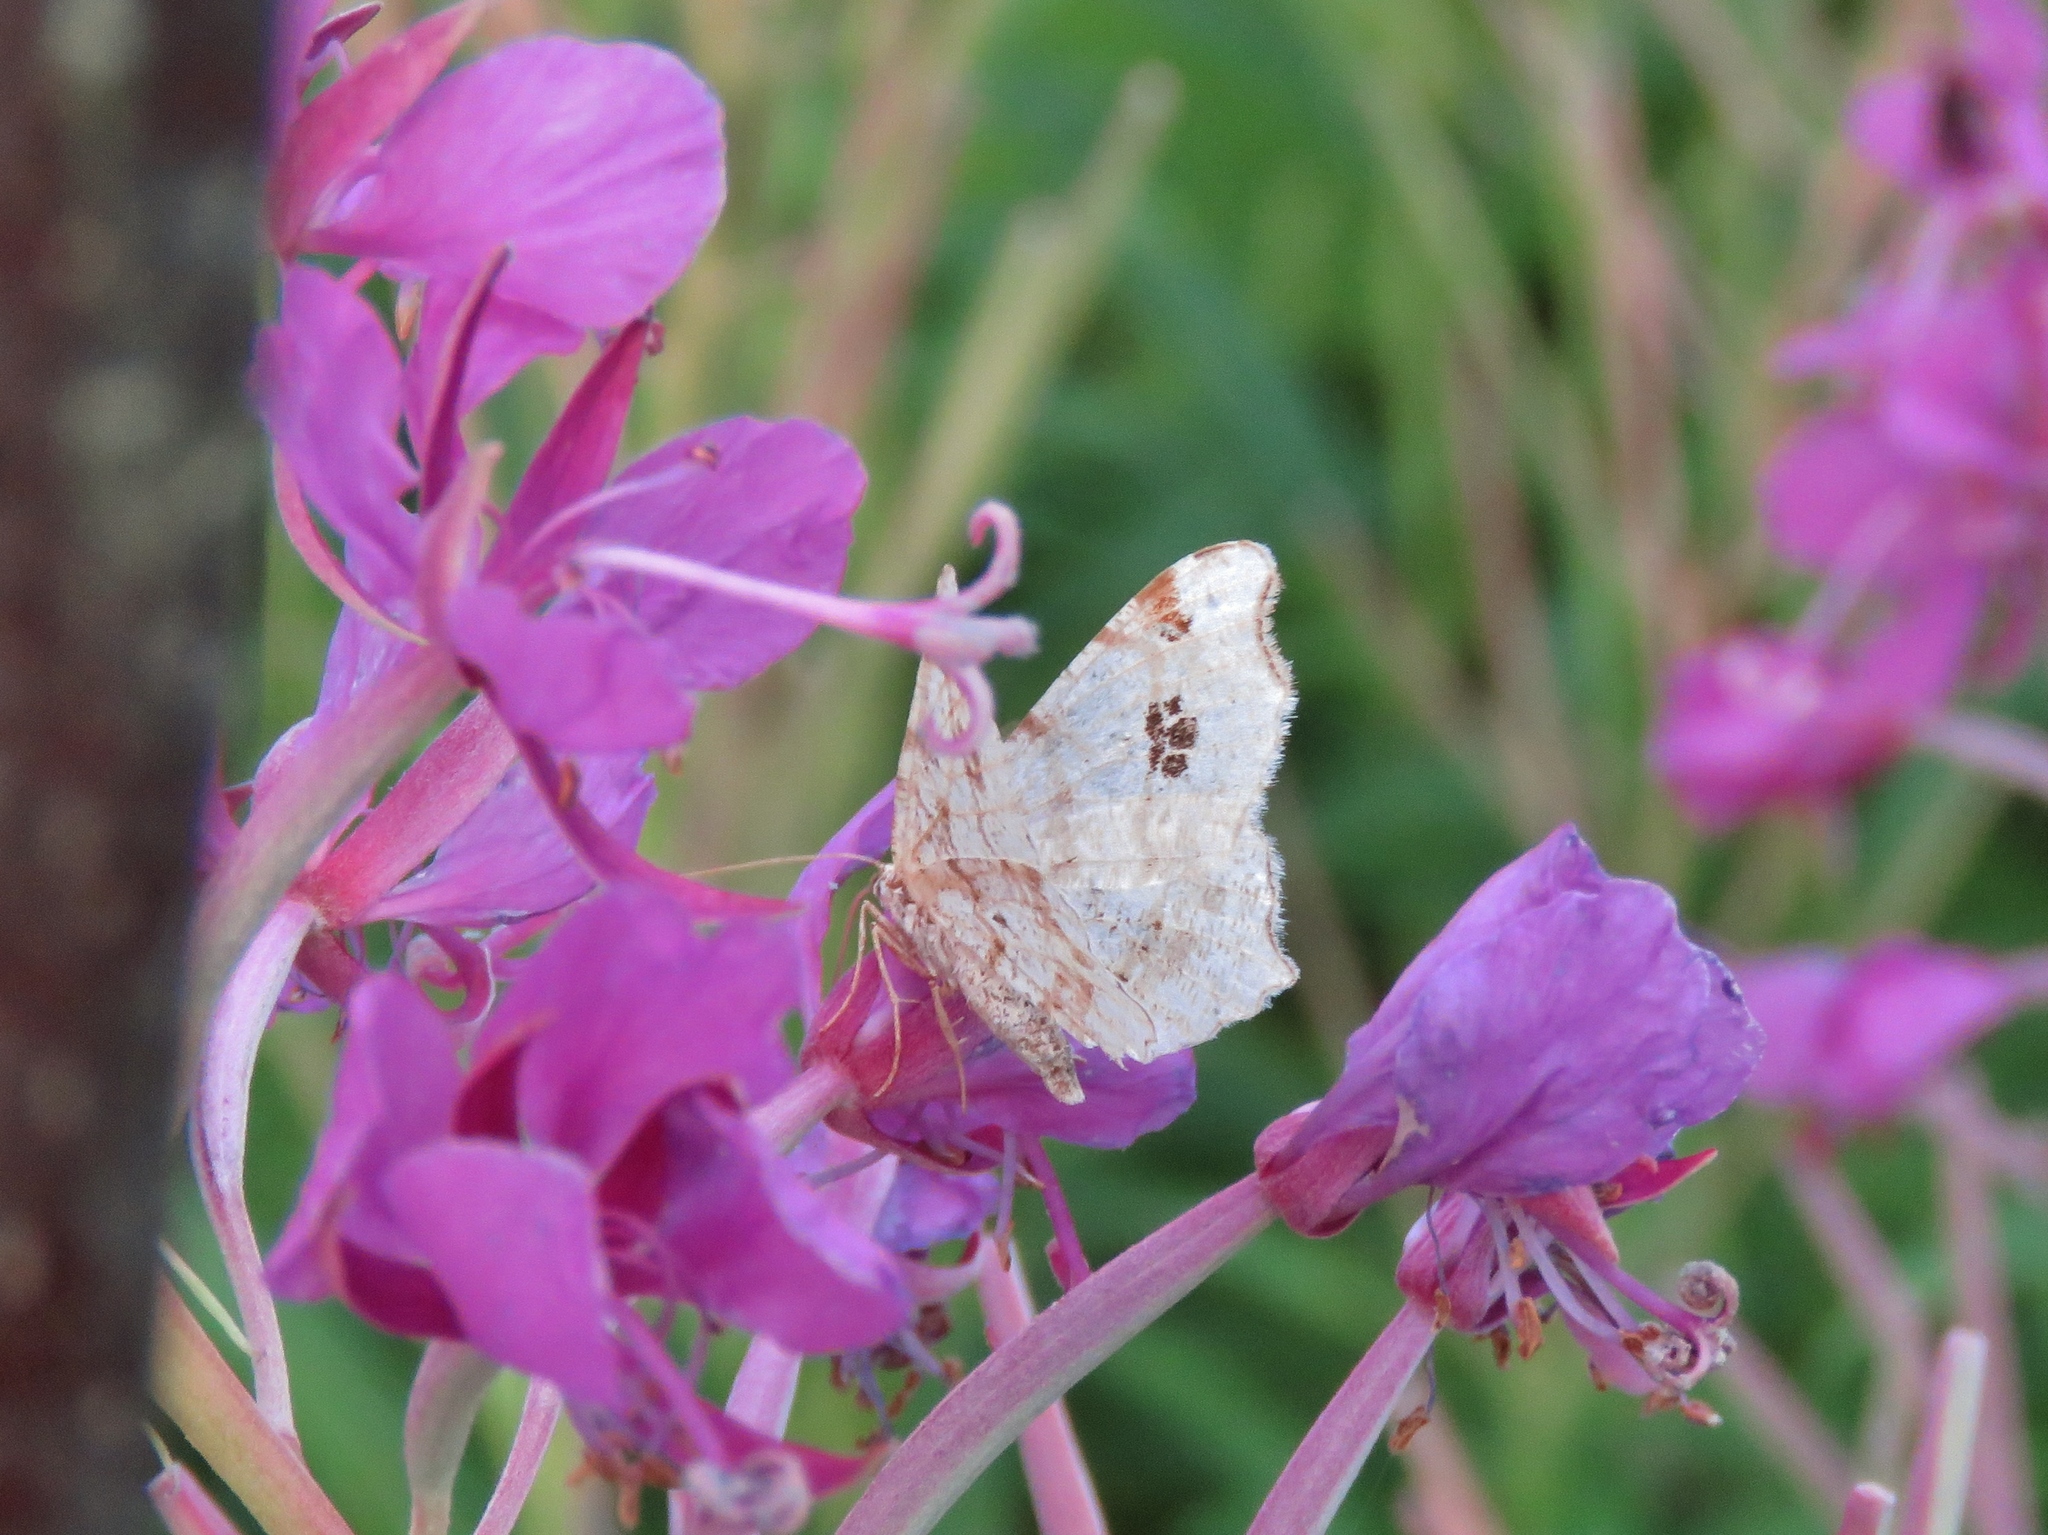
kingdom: Animalia
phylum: Arthropoda
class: Insecta
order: Lepidoptera
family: Geometridae
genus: Macaria
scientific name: Macaria notata
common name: Peacock moth
